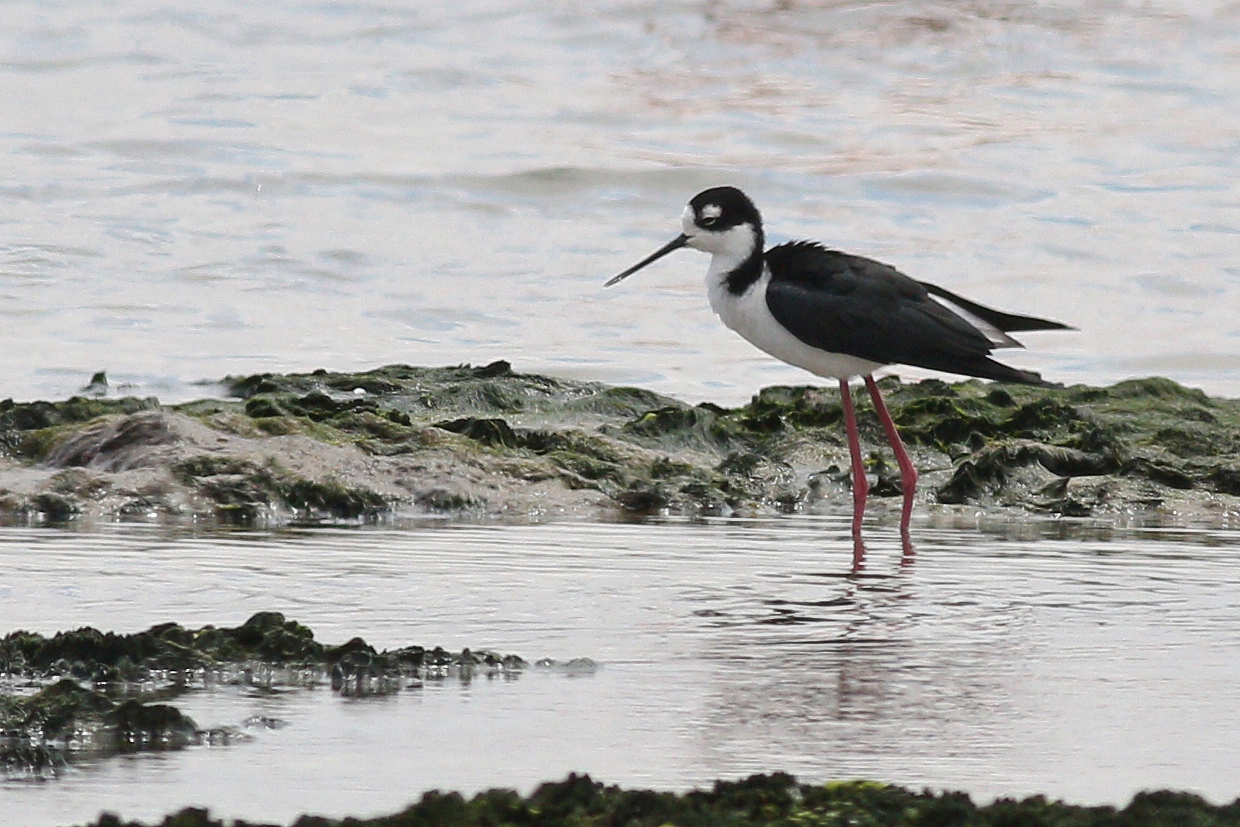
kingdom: Animalia
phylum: Chordata
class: Aves
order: Charadriiformes
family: Recurvirostridae
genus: Himantopus
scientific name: Himantopus mexicanus
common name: Black-necked stilt
